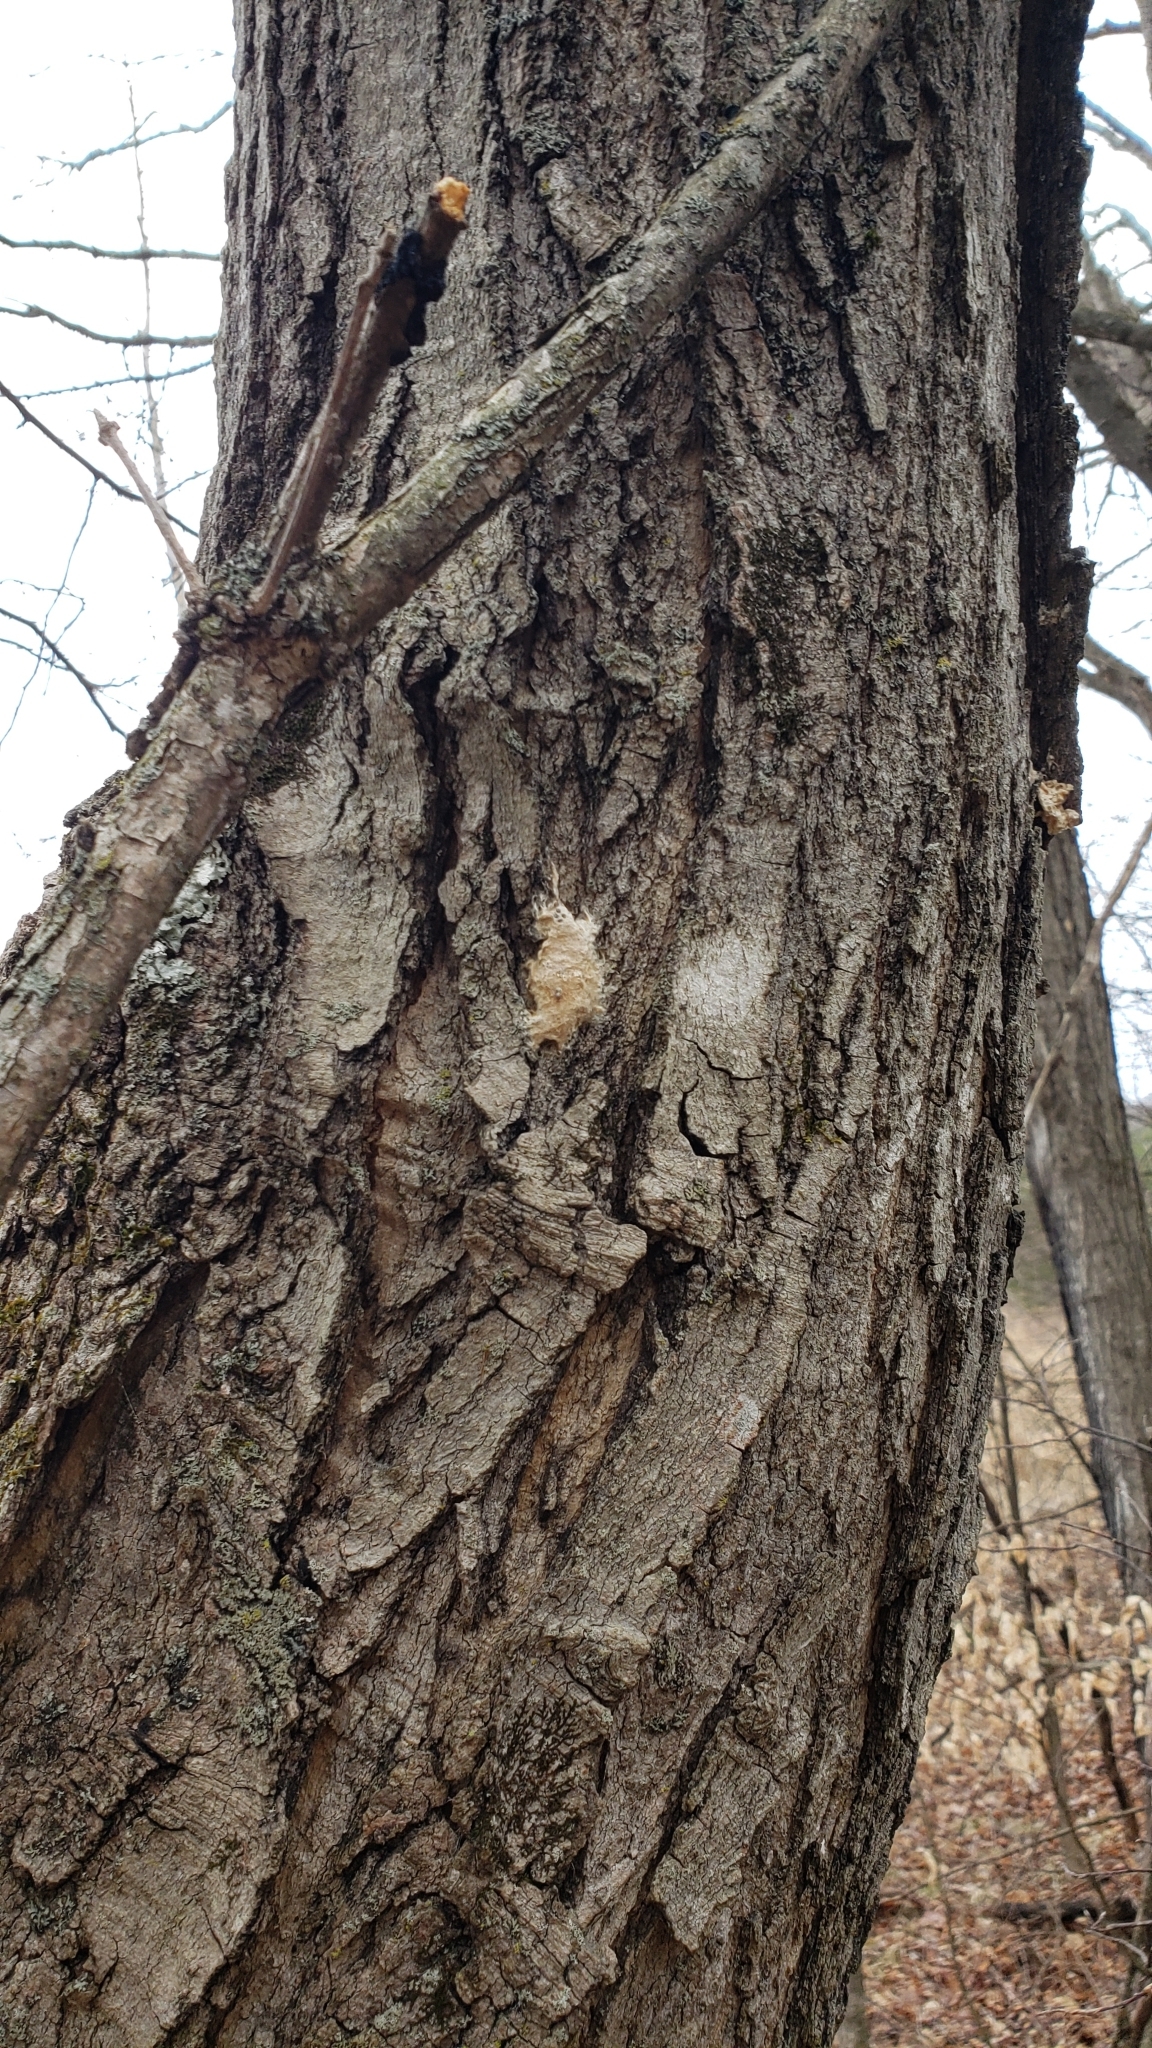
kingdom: Animalia
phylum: Arthropoda
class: Insecta
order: Lepidoptera
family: Erebidae
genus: Lymantria
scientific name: Lymantria dispar
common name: Gypsy moth
